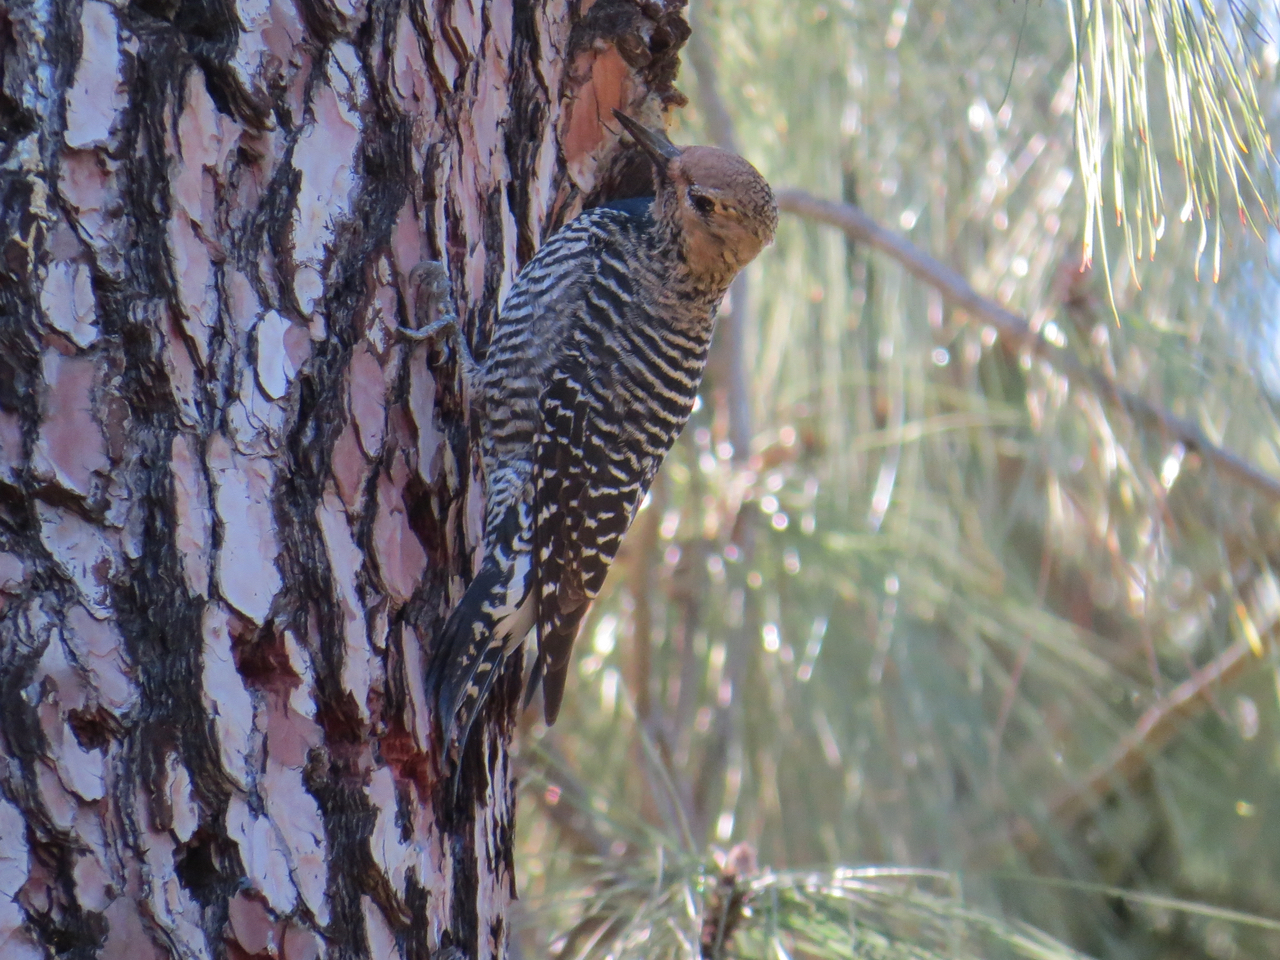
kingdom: Animalia
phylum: Chordata
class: Aves
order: Piciformes
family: Picidae
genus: Sphyrapicus
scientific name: Sphyrapicus thyroideus
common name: Williamson's sapsucker
